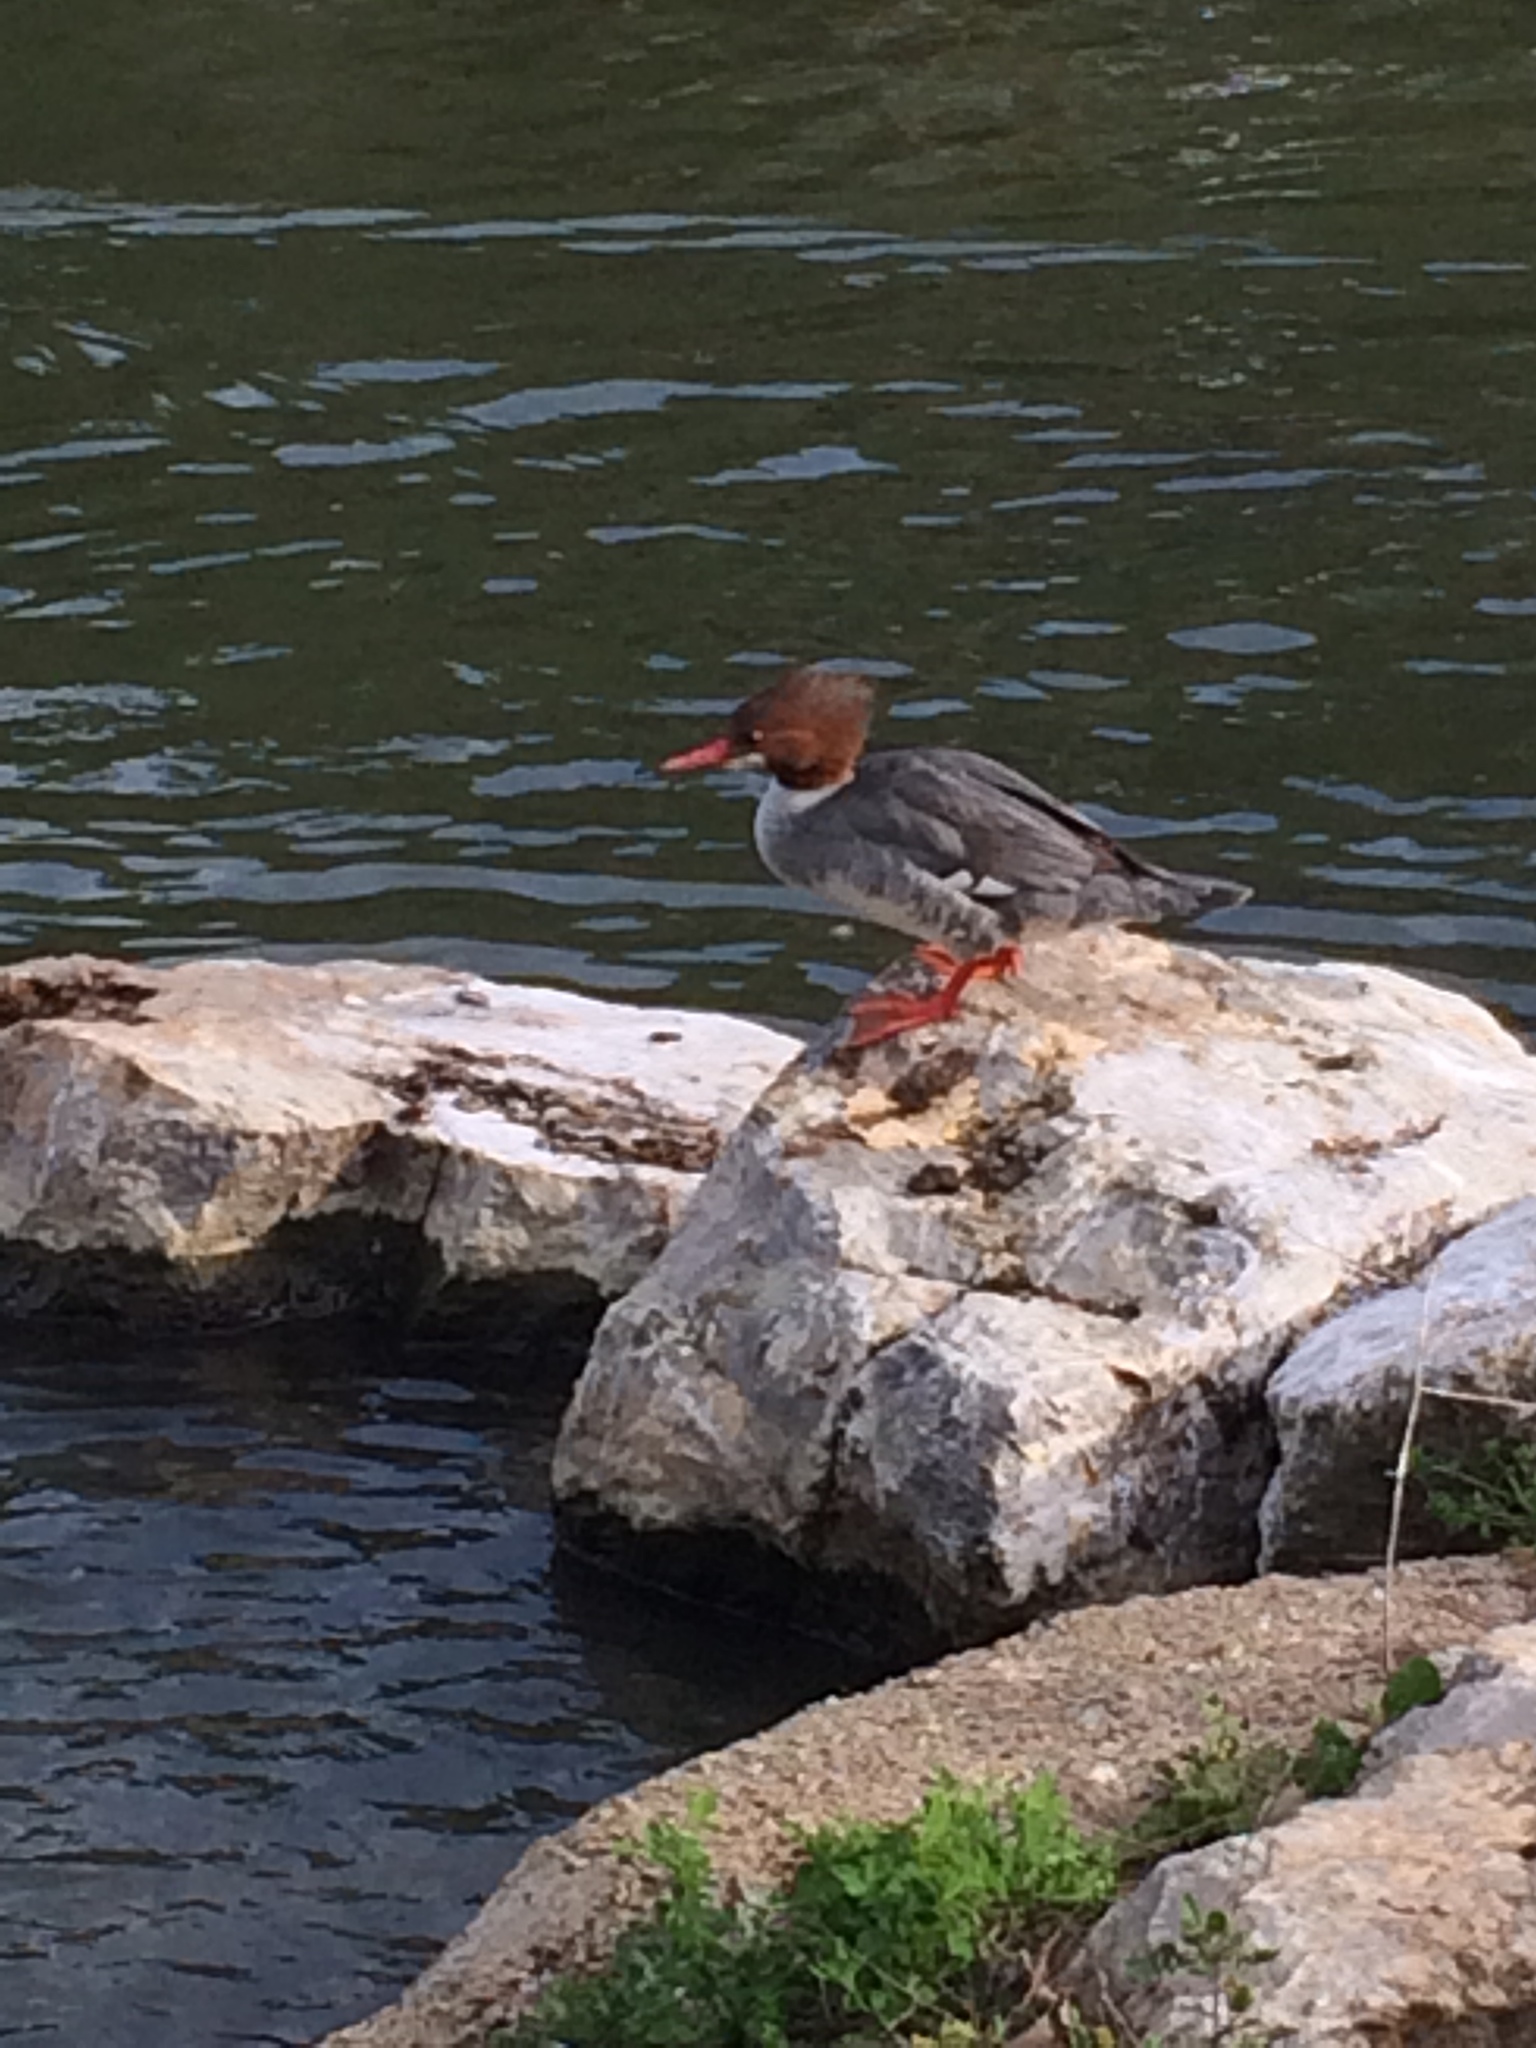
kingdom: Animalia
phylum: Chordata
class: Aves
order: Anseriformes
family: Anatidae
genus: Mergus
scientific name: Mergus merganser
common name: Common merganser
